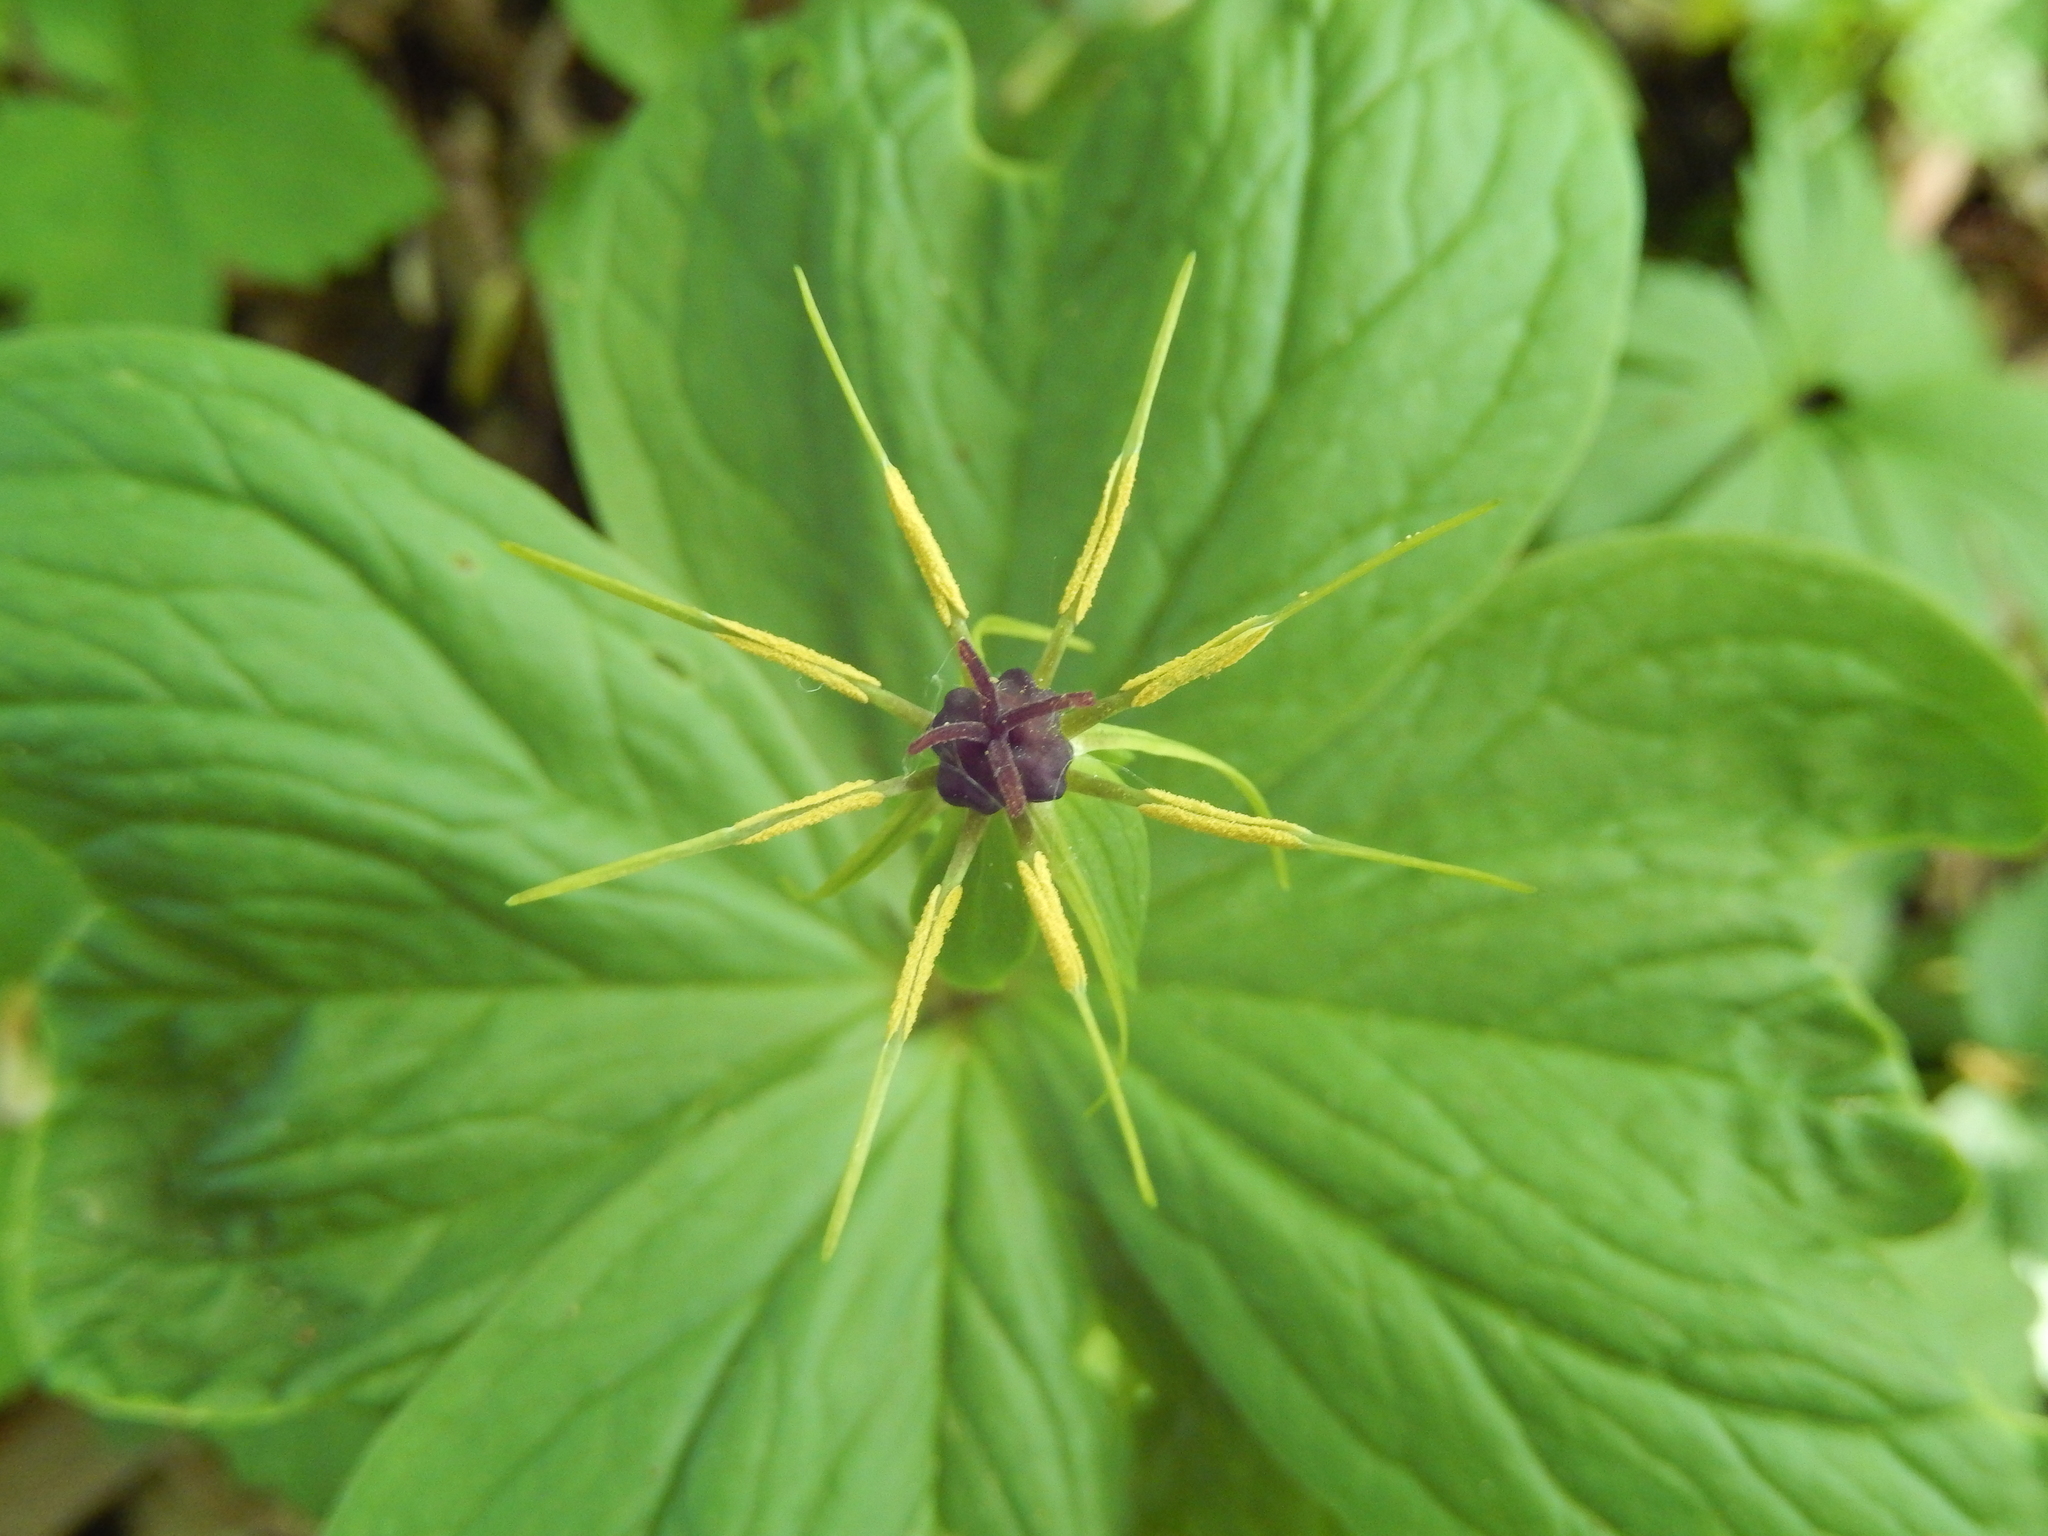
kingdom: Plantae
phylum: Tracheophyta
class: Liliopsida
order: Liliales
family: Melanthiaceae
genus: Paris
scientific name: Paris quadrifolia
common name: Herb-paris
